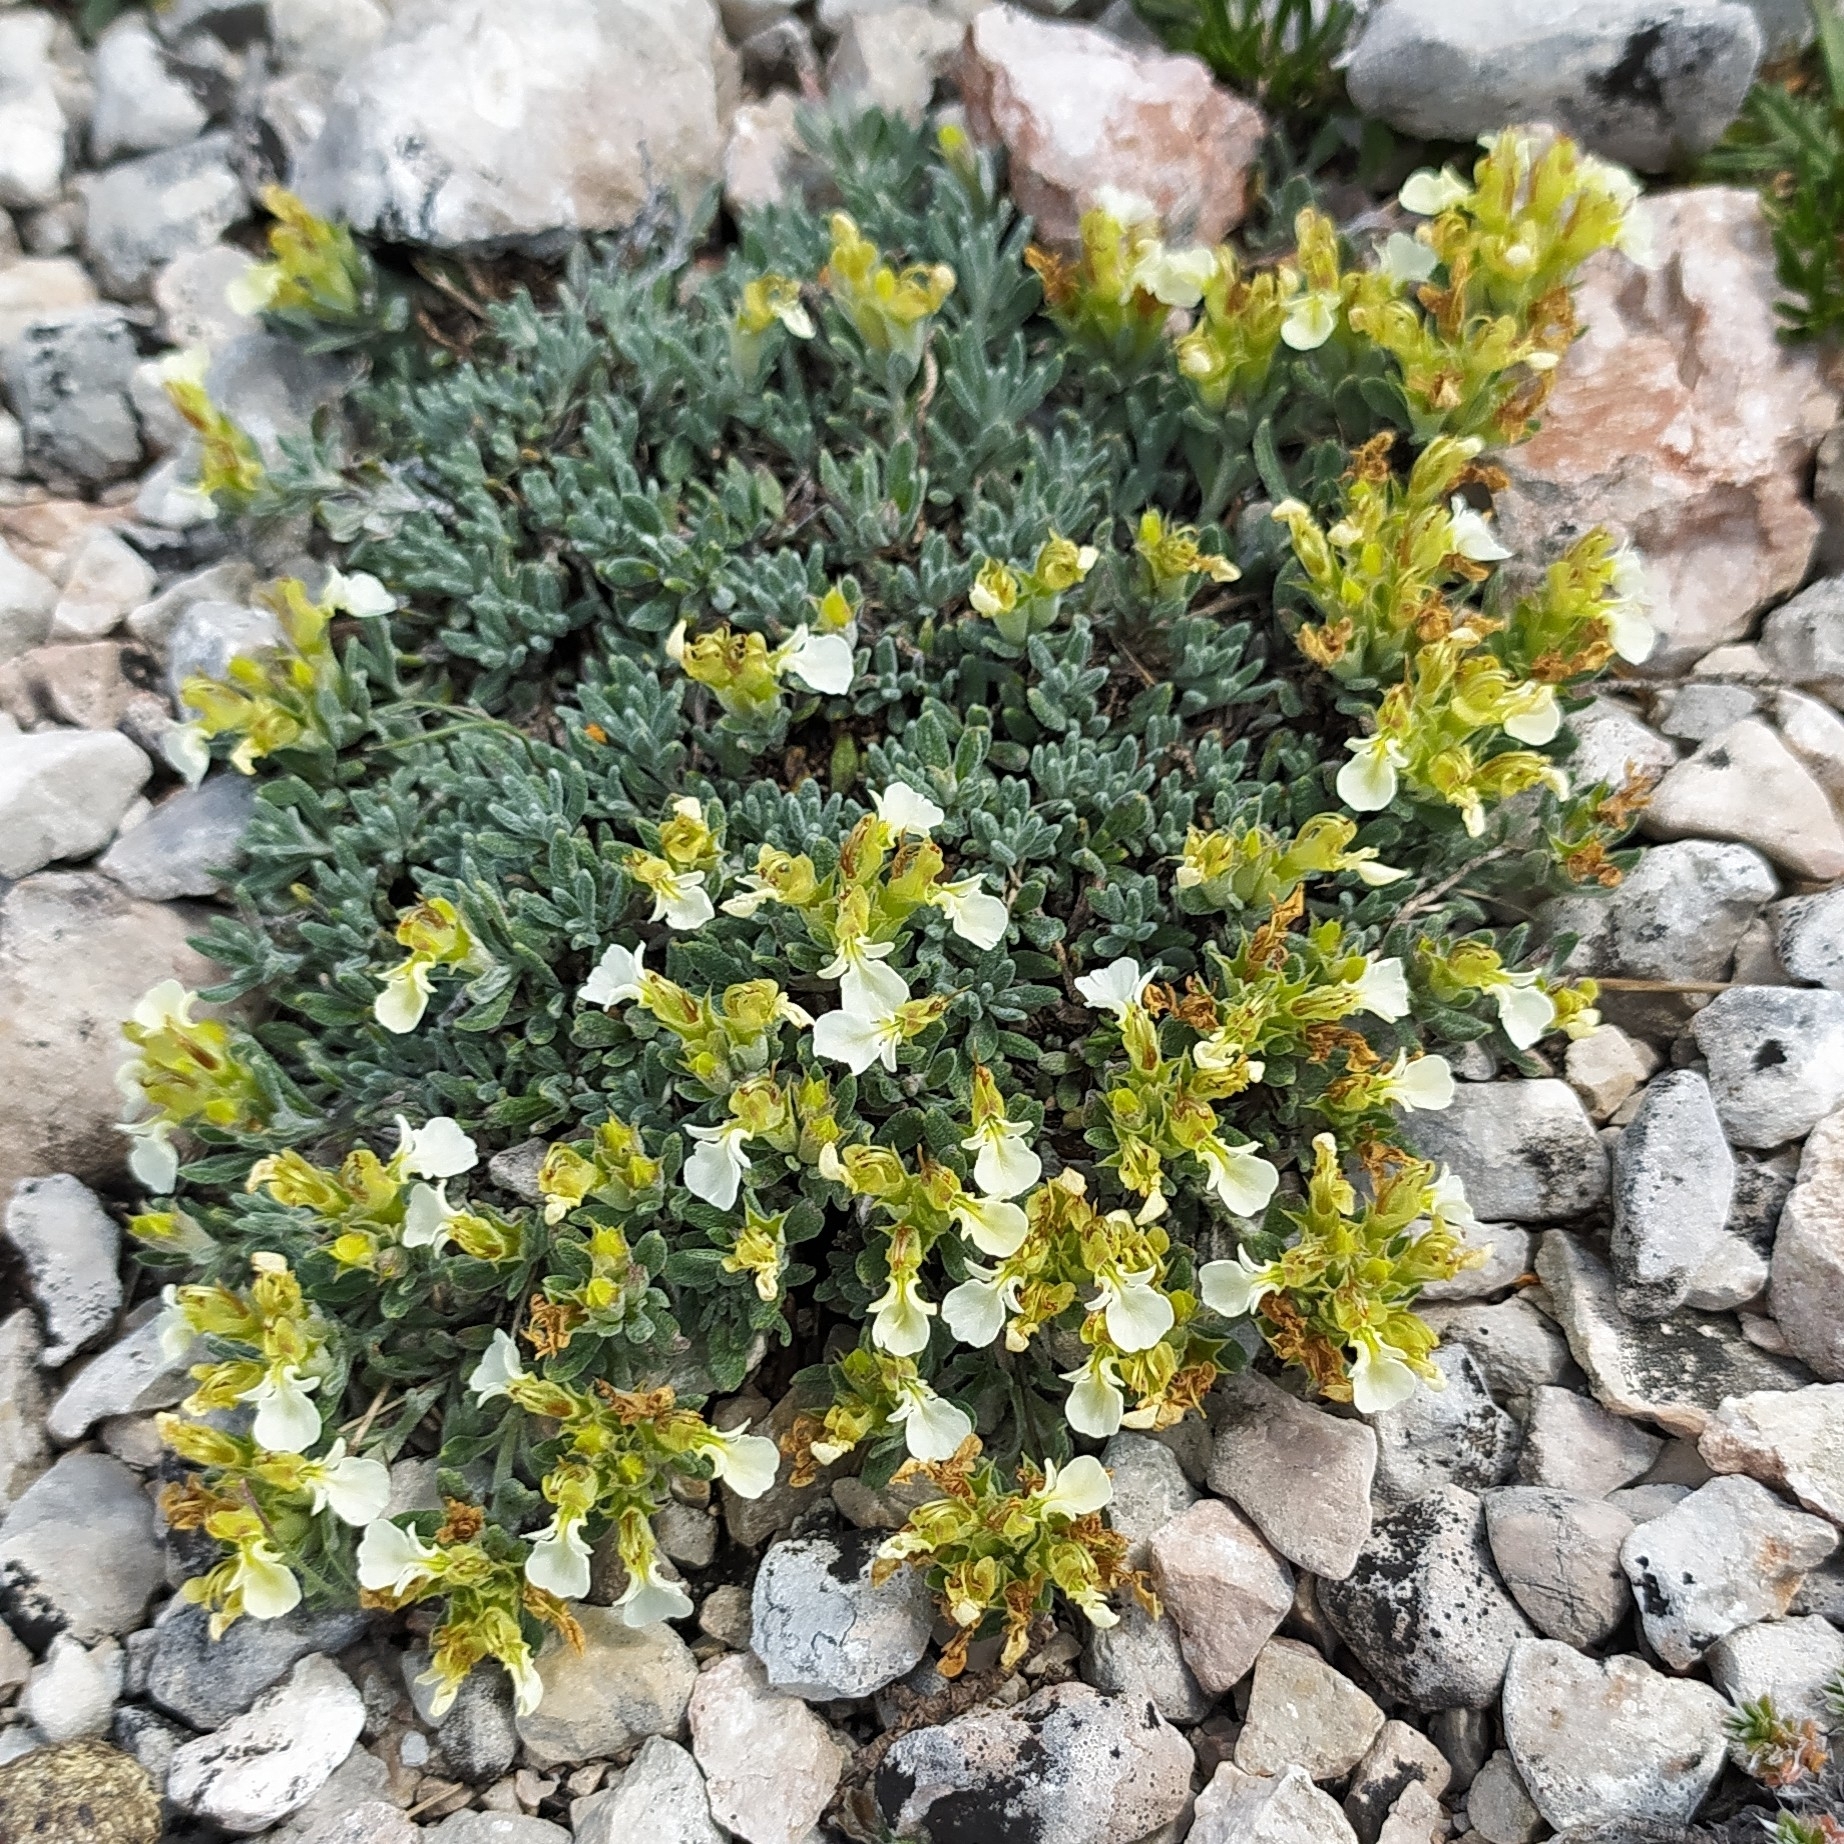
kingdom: Plantae
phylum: Tracheophyta
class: Magnoliopsida
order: Lamiales
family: Lamiaceae
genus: Teucrium
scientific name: Teucrium montanum
